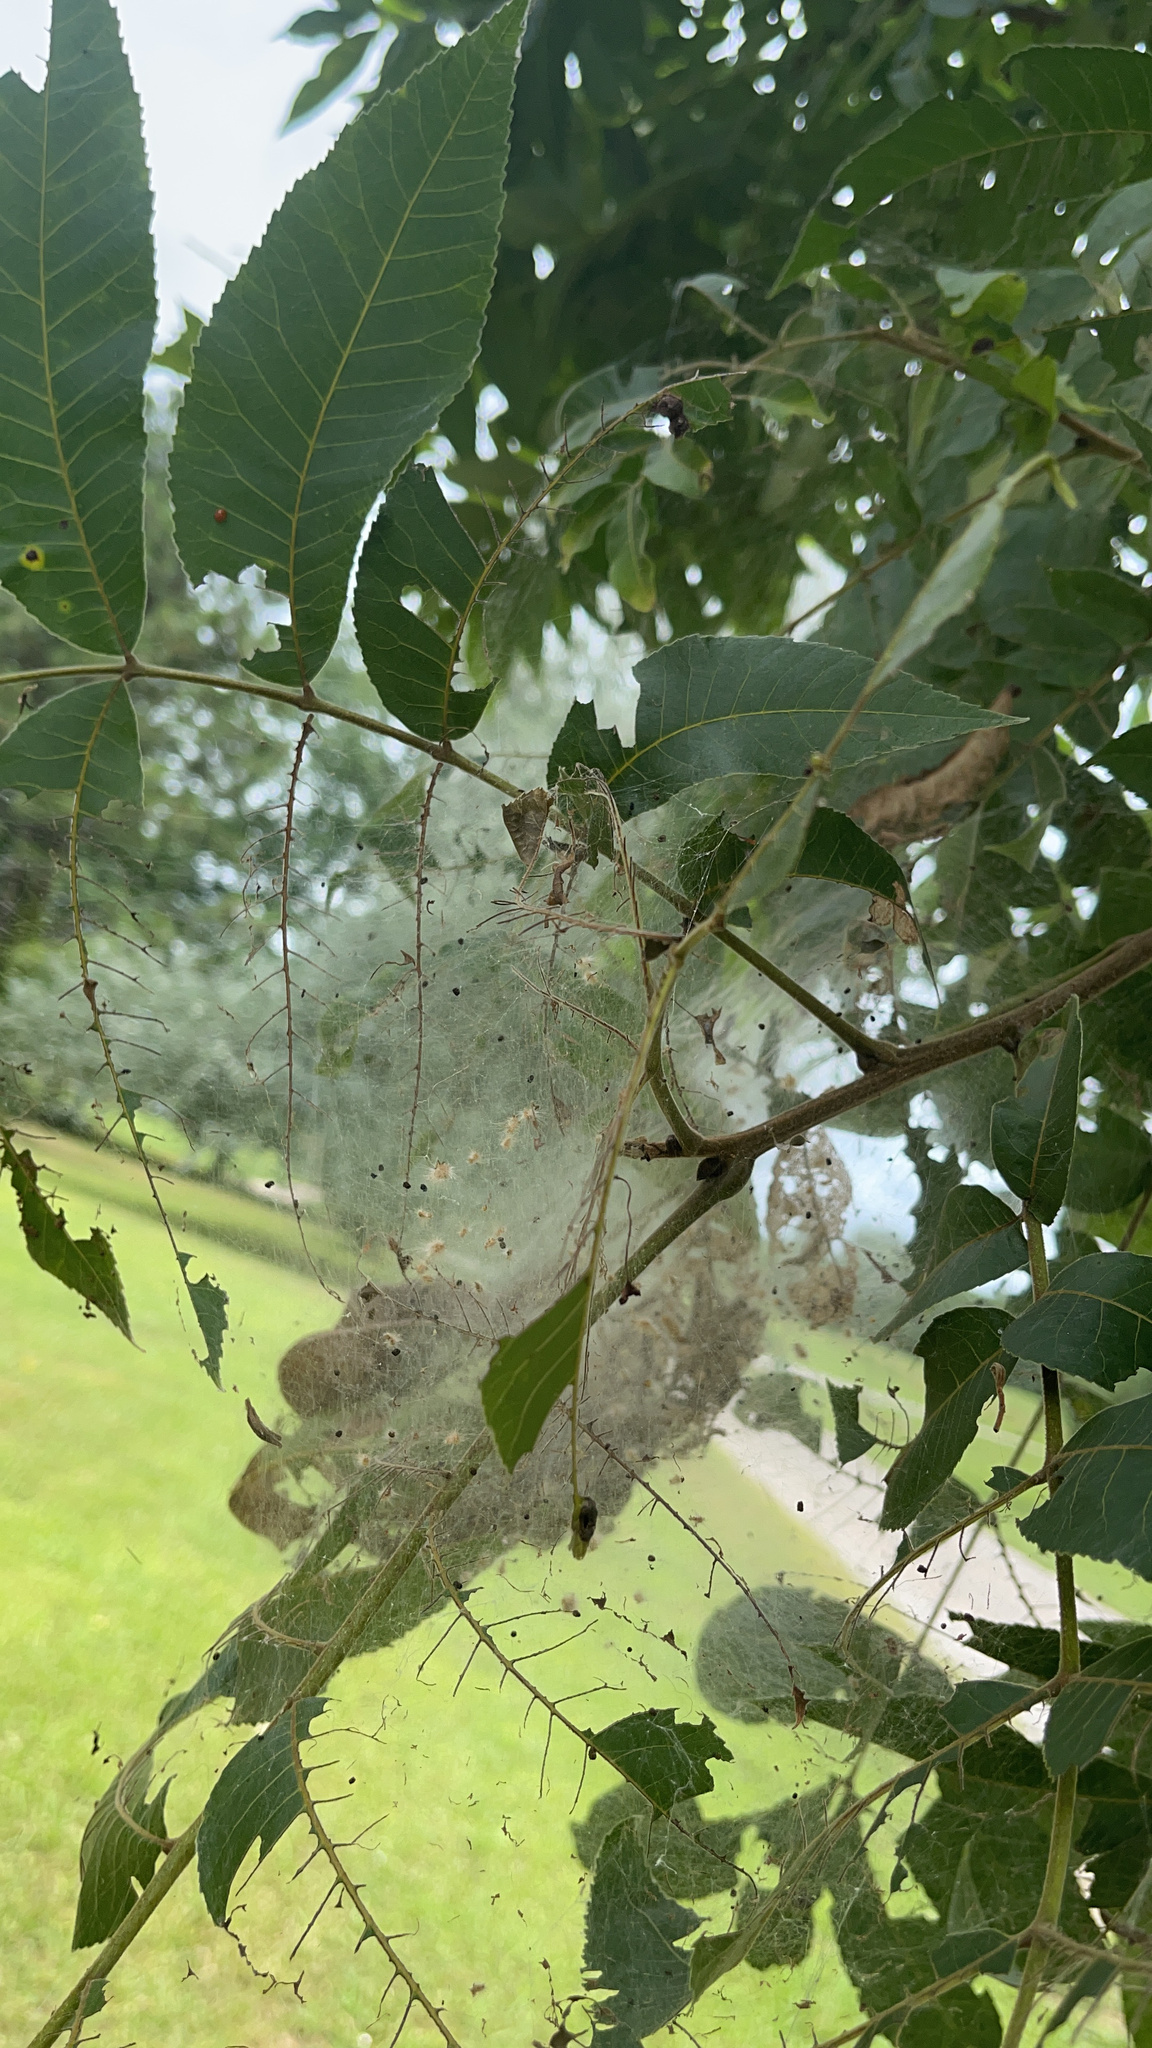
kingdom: Animalia
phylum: Arthropoda
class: Insecta
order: Lepidoptera
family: Erebidae
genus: Hyphantria
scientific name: Hyphantria cunea
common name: American white moth
